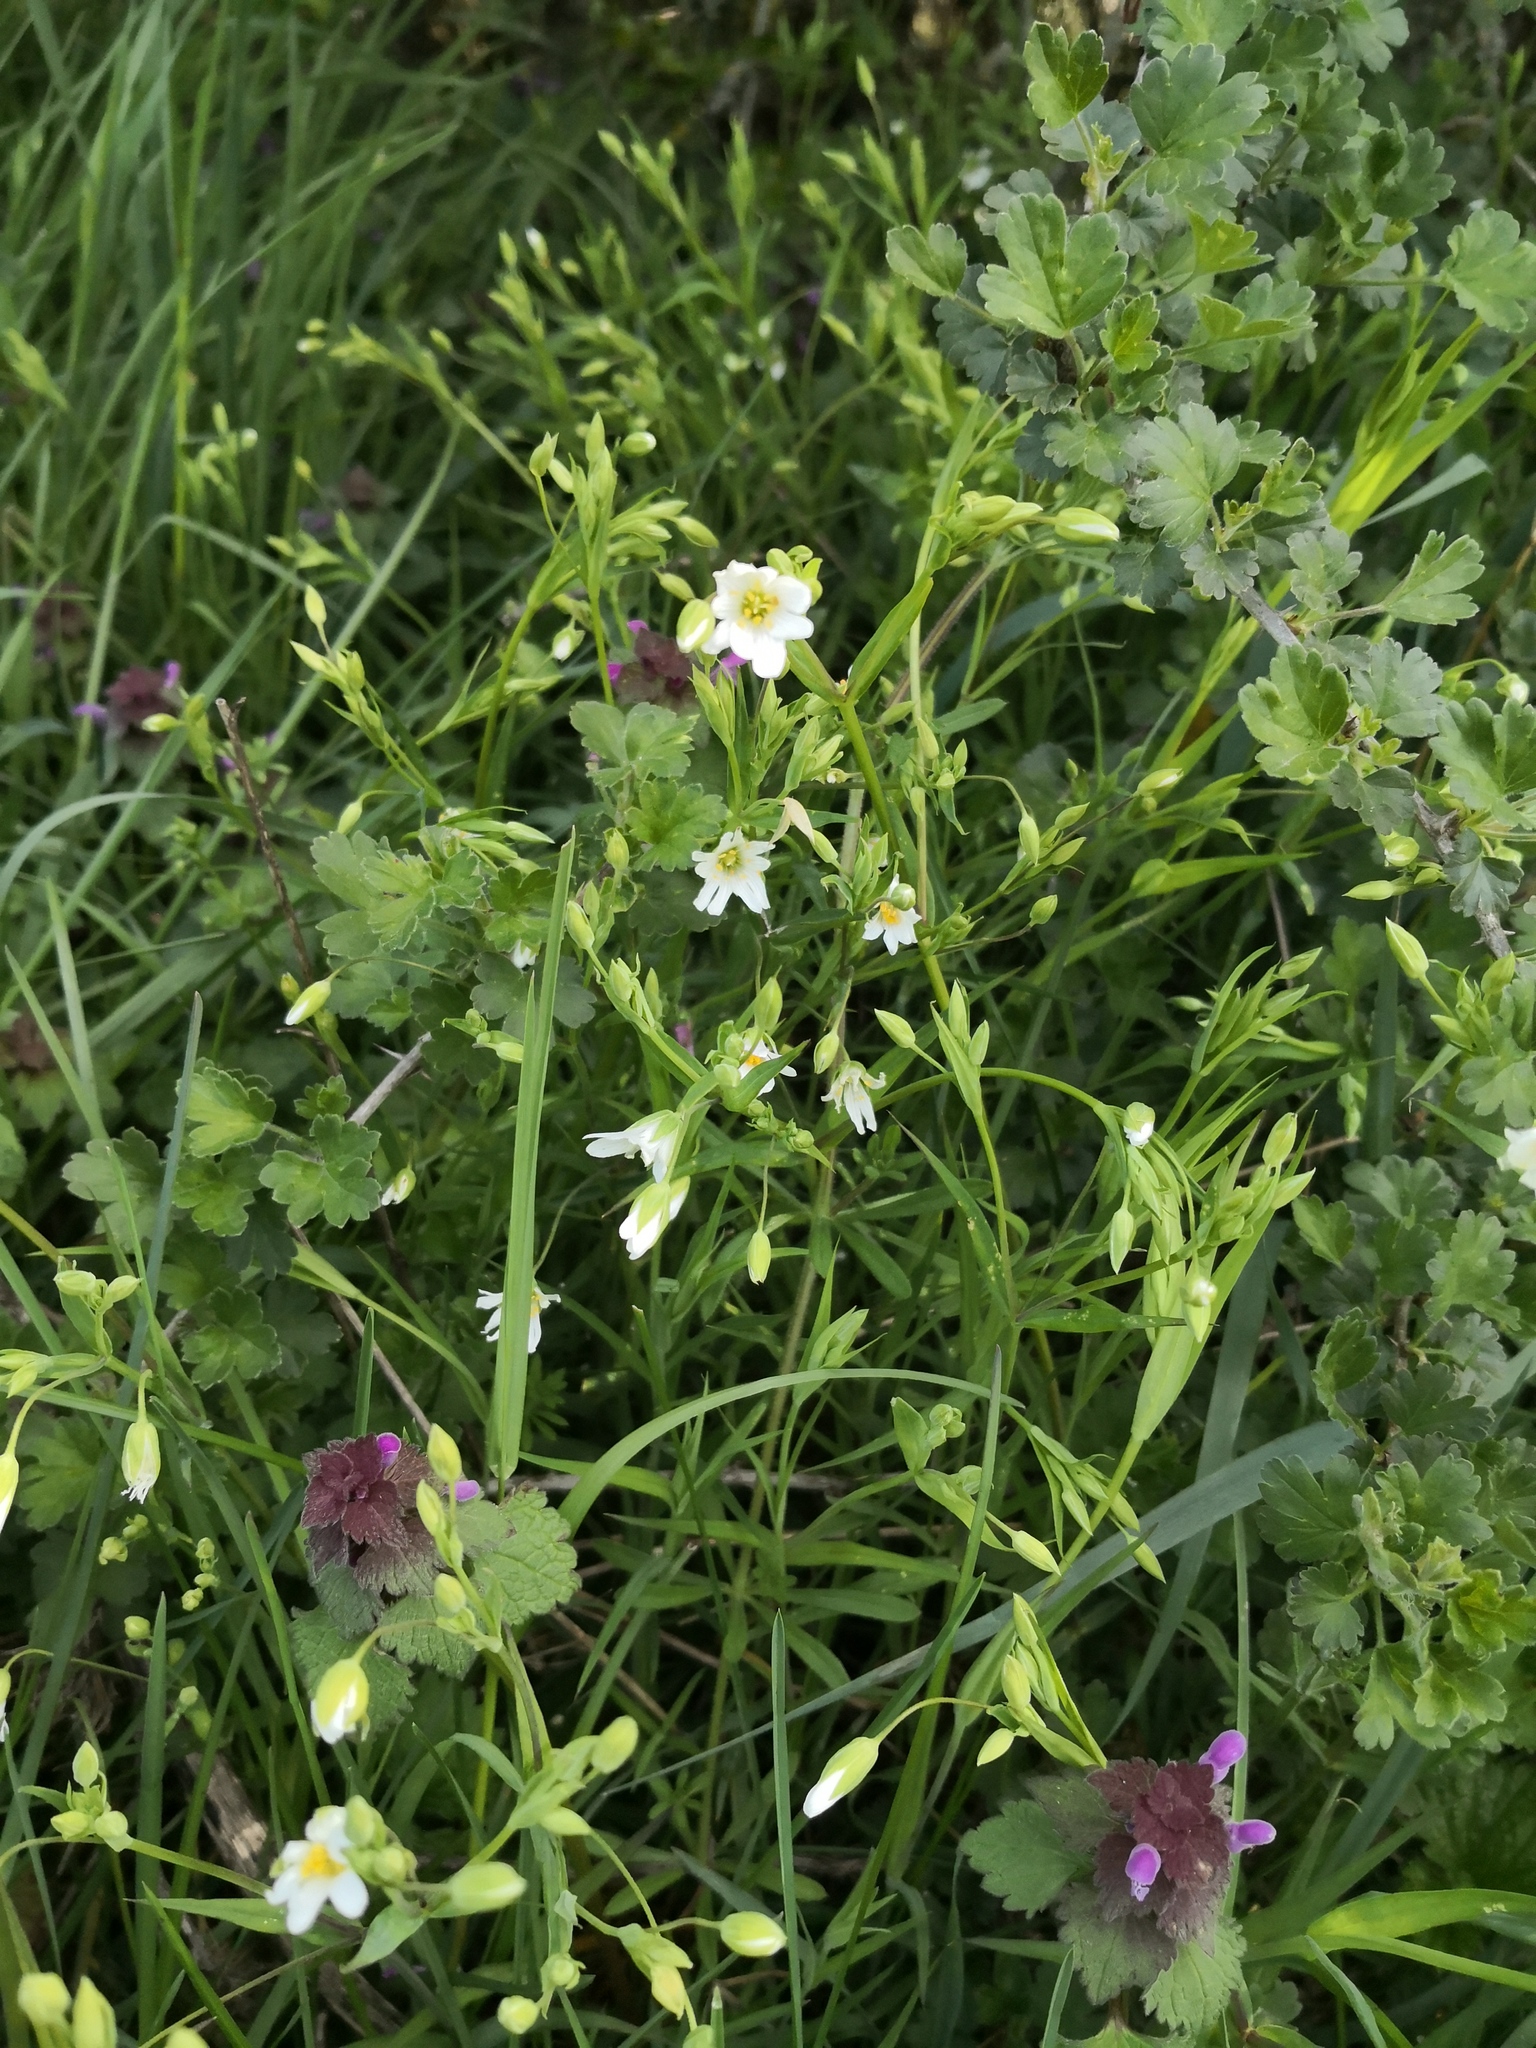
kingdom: Plantae
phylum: Tracheophyta
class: Magnoliopsida
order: Caryophyllales
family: Caryophyllaceae
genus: Rabelera
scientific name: Rabelera holostea
